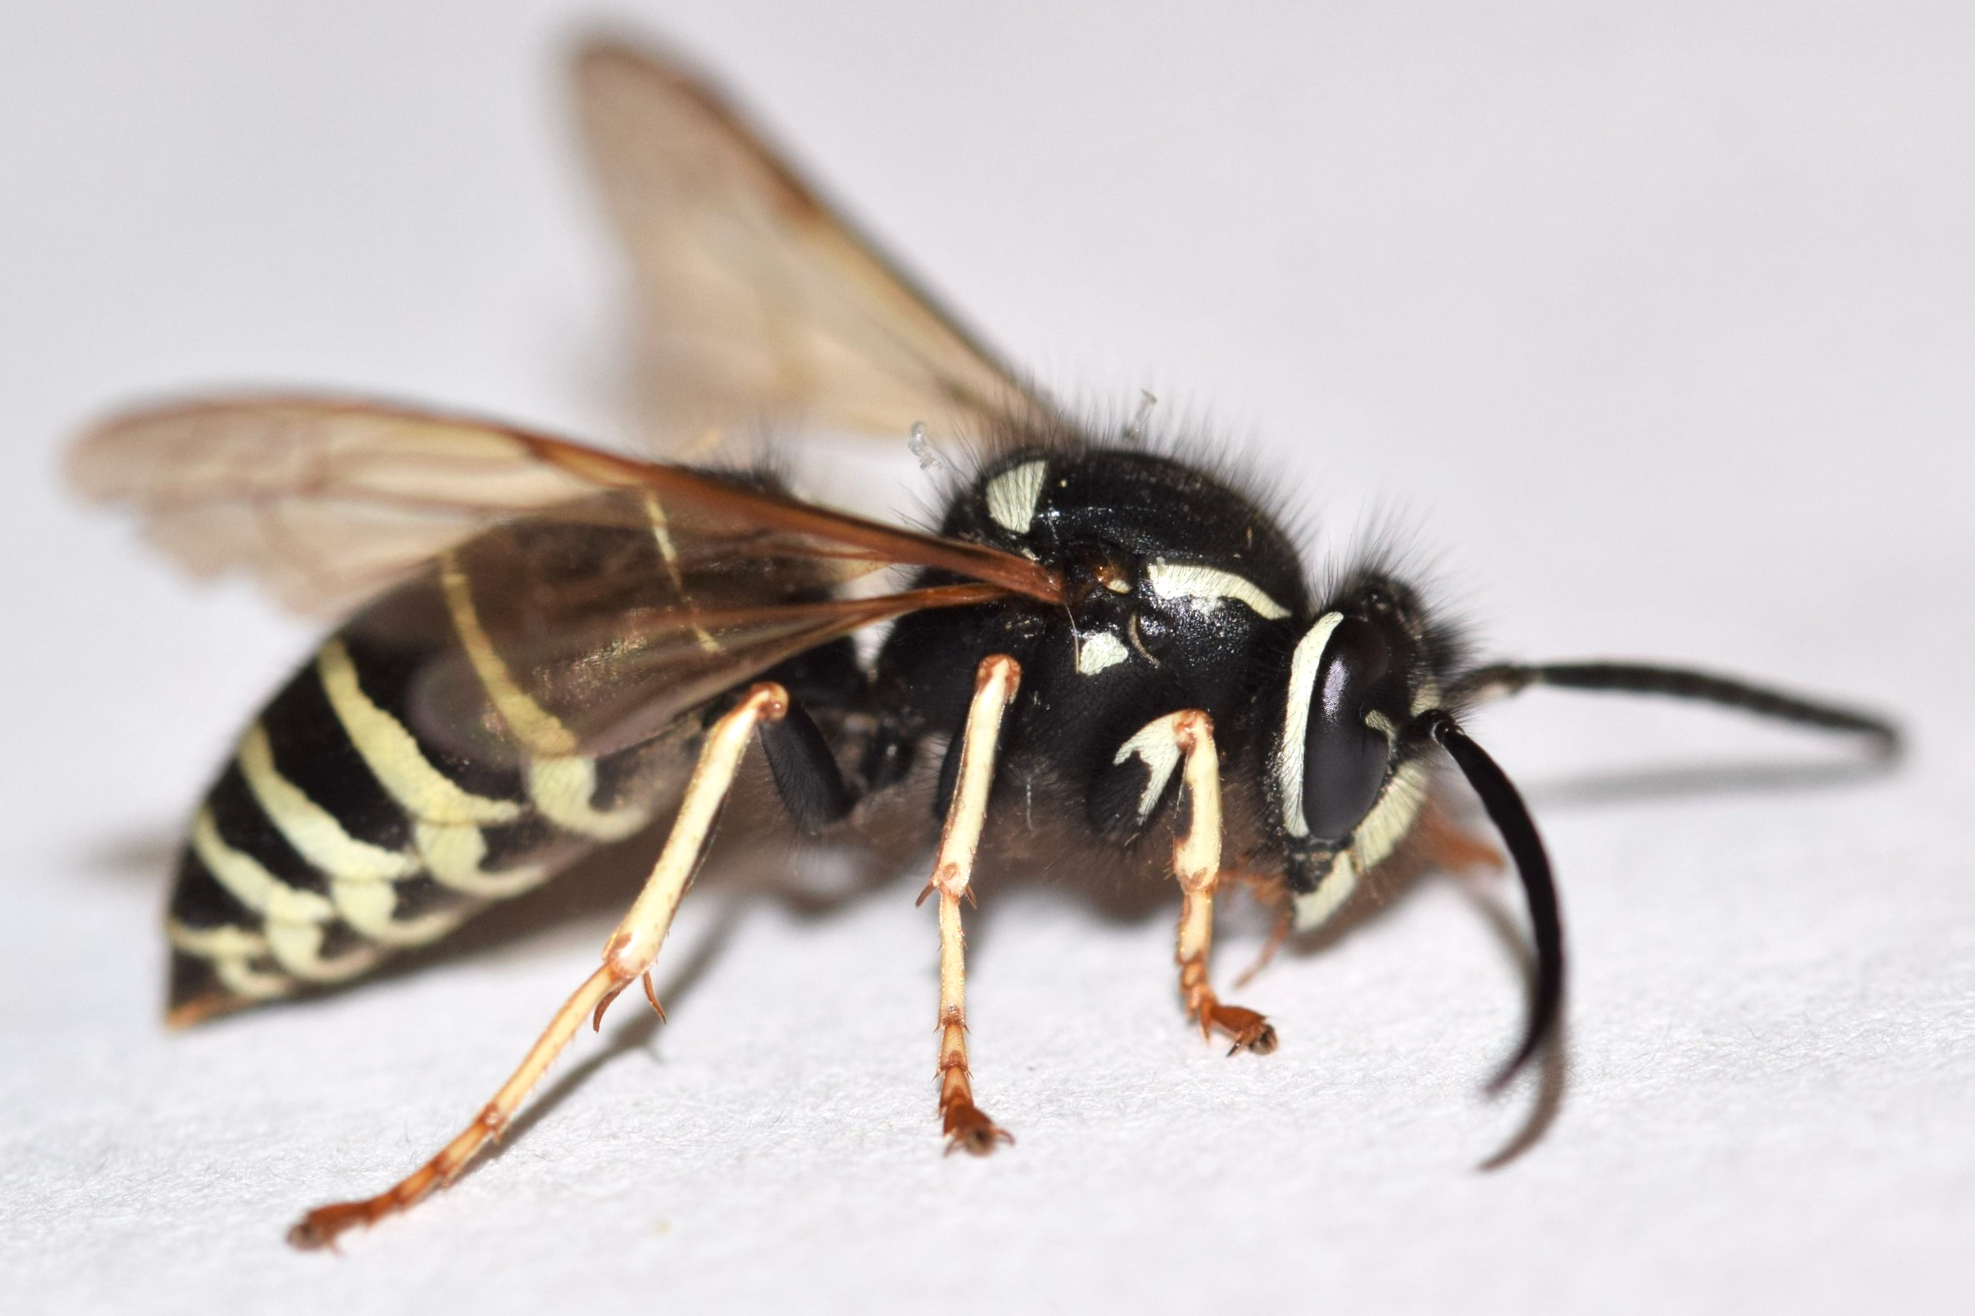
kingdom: Animalia
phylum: Arthropoda
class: Insecta
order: Hymenoptera
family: Vespidae
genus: Vespula
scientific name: Vespula consobrina
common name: Blackjacket
